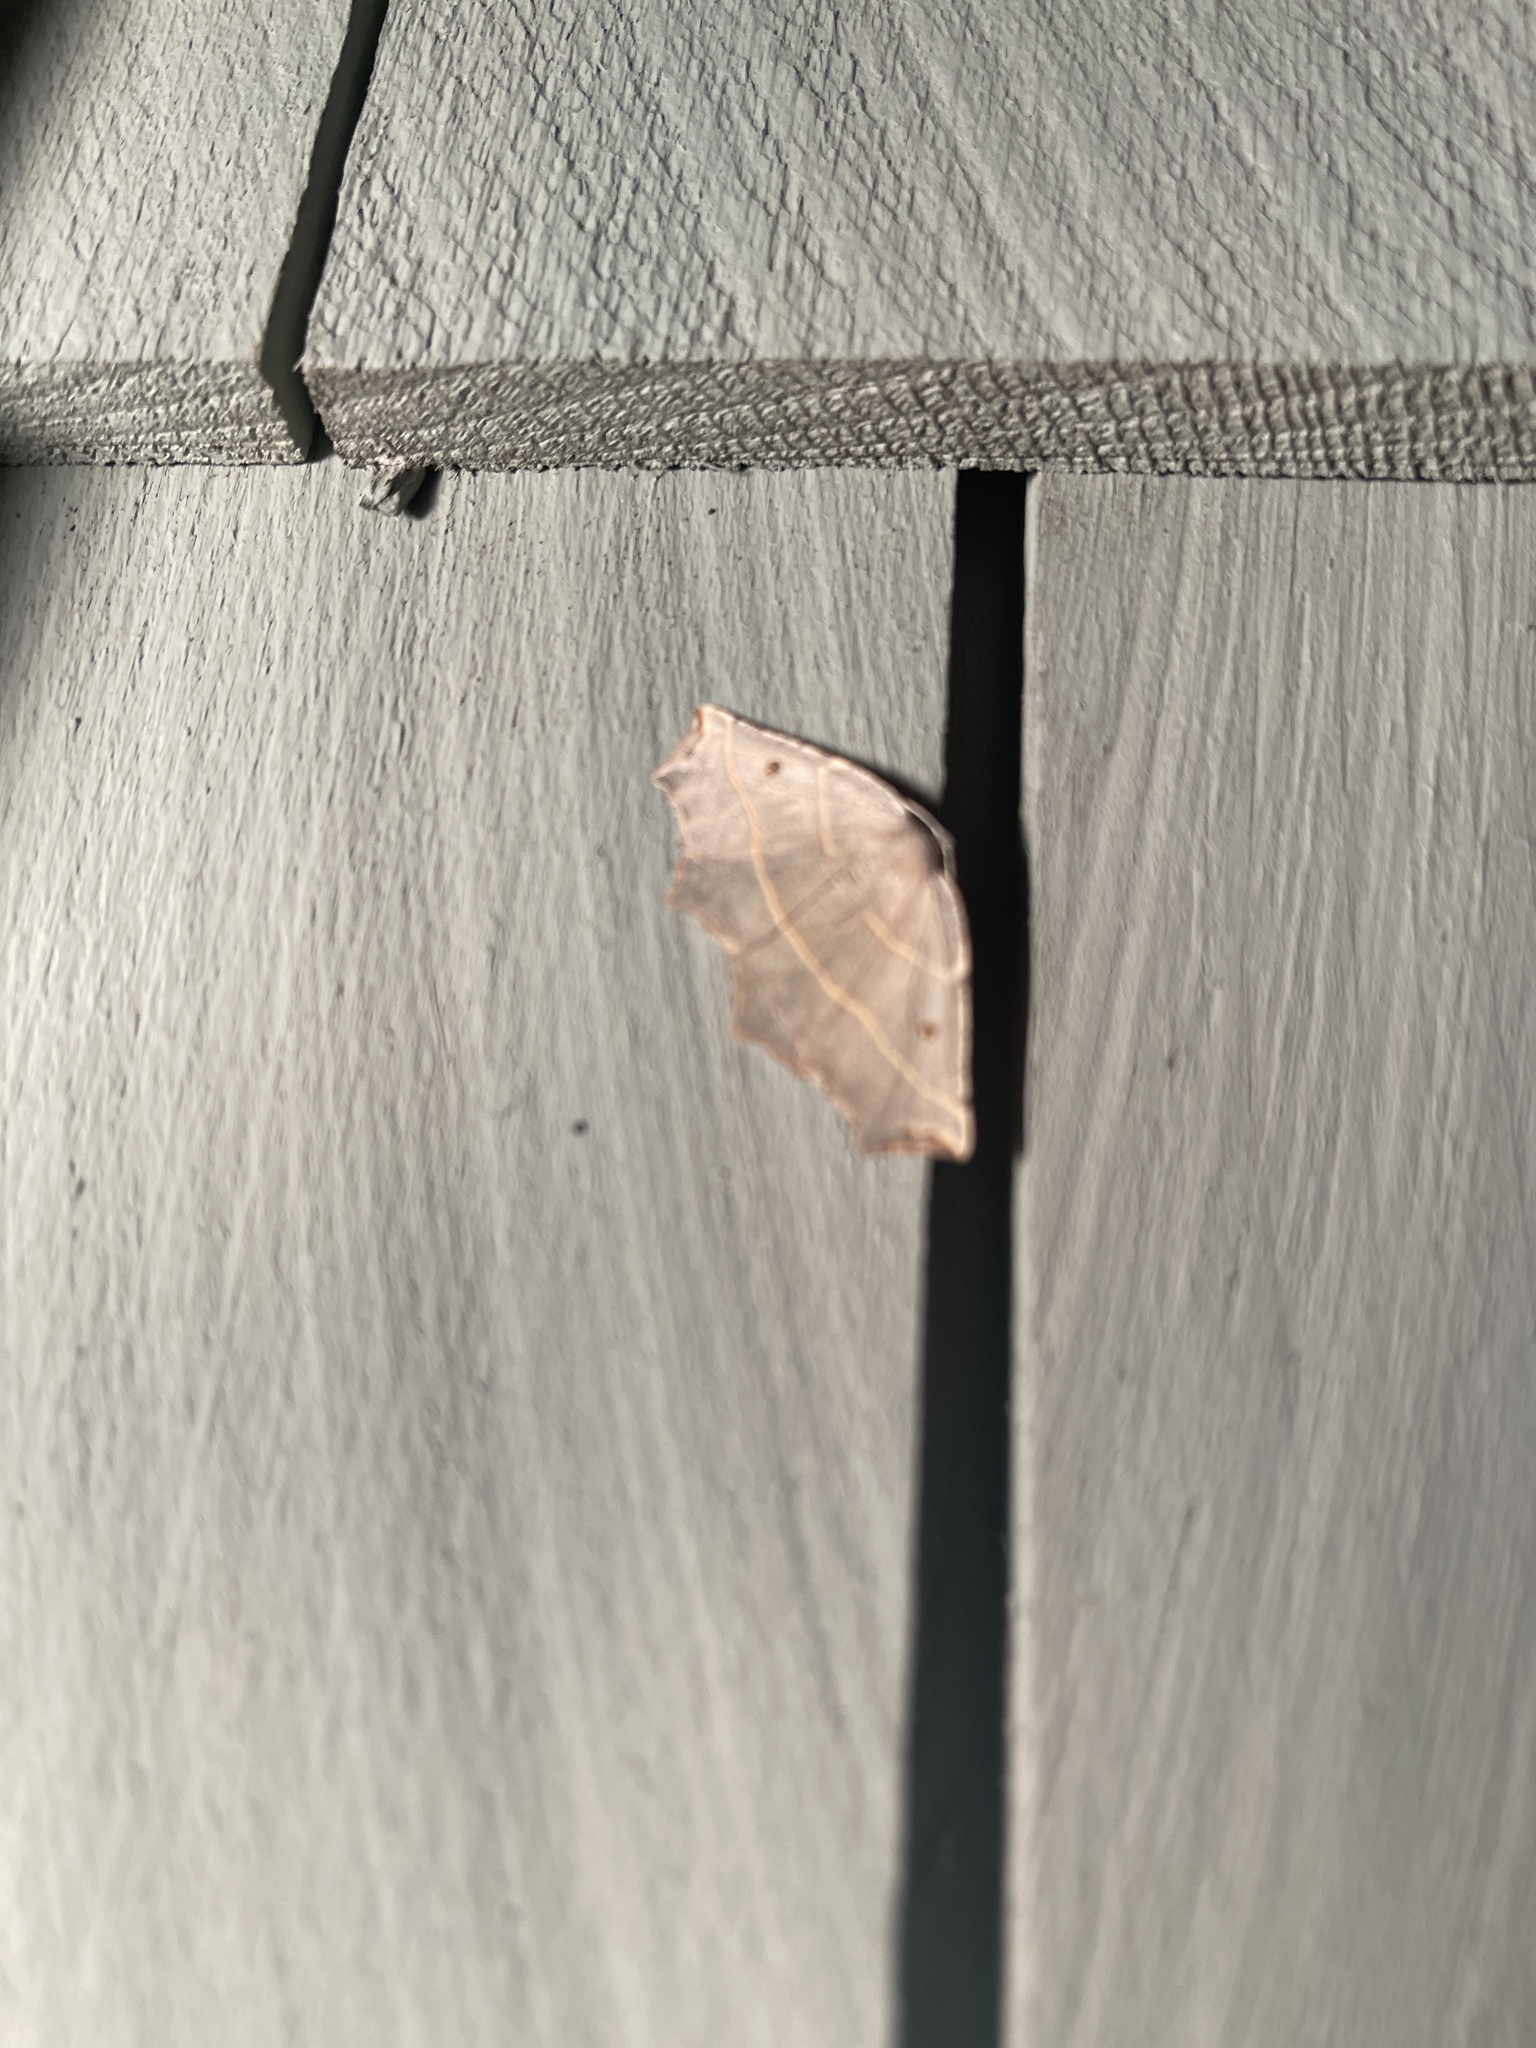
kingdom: Animalia
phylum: Arthropoda
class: Insecta
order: Lepidoptera
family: Geometridae
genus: Metanema
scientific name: Metanema inatomaria
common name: Pale metanema
